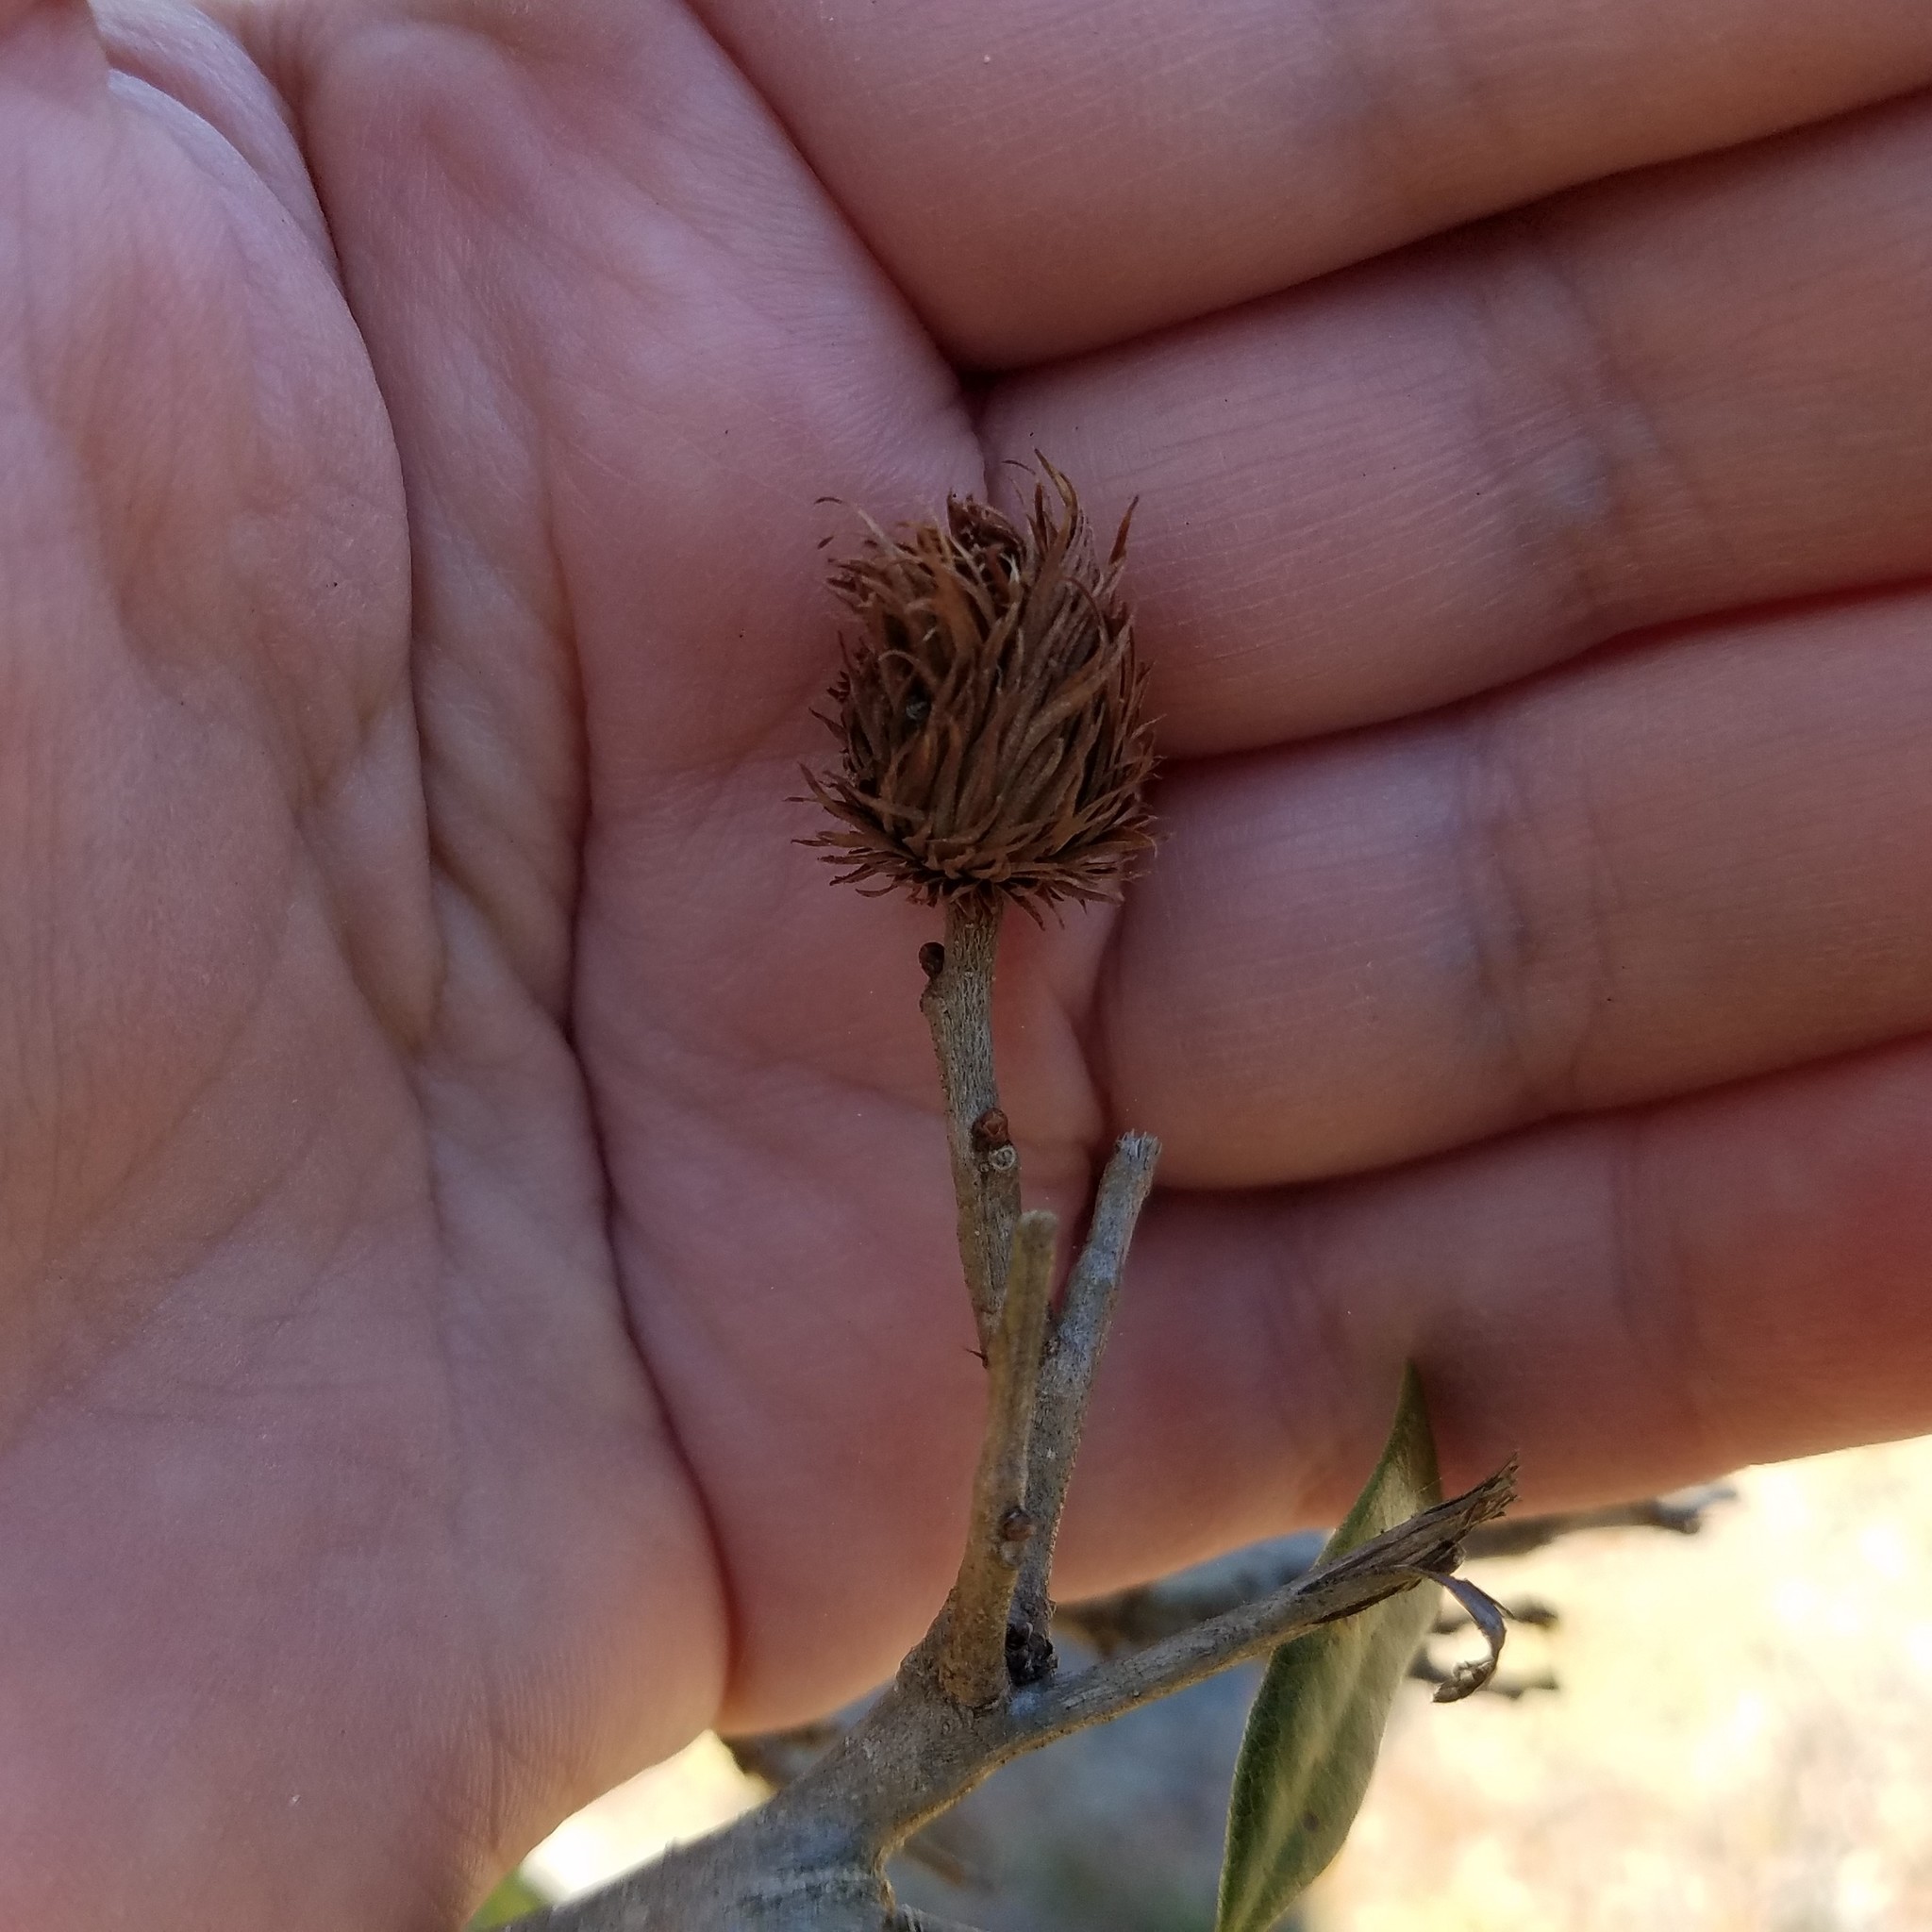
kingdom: Animalia
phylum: Arthropoda
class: Insecta
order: Hymenoptera
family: Cynipidae
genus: Andricus
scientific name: Andricus quercusfoliatus
